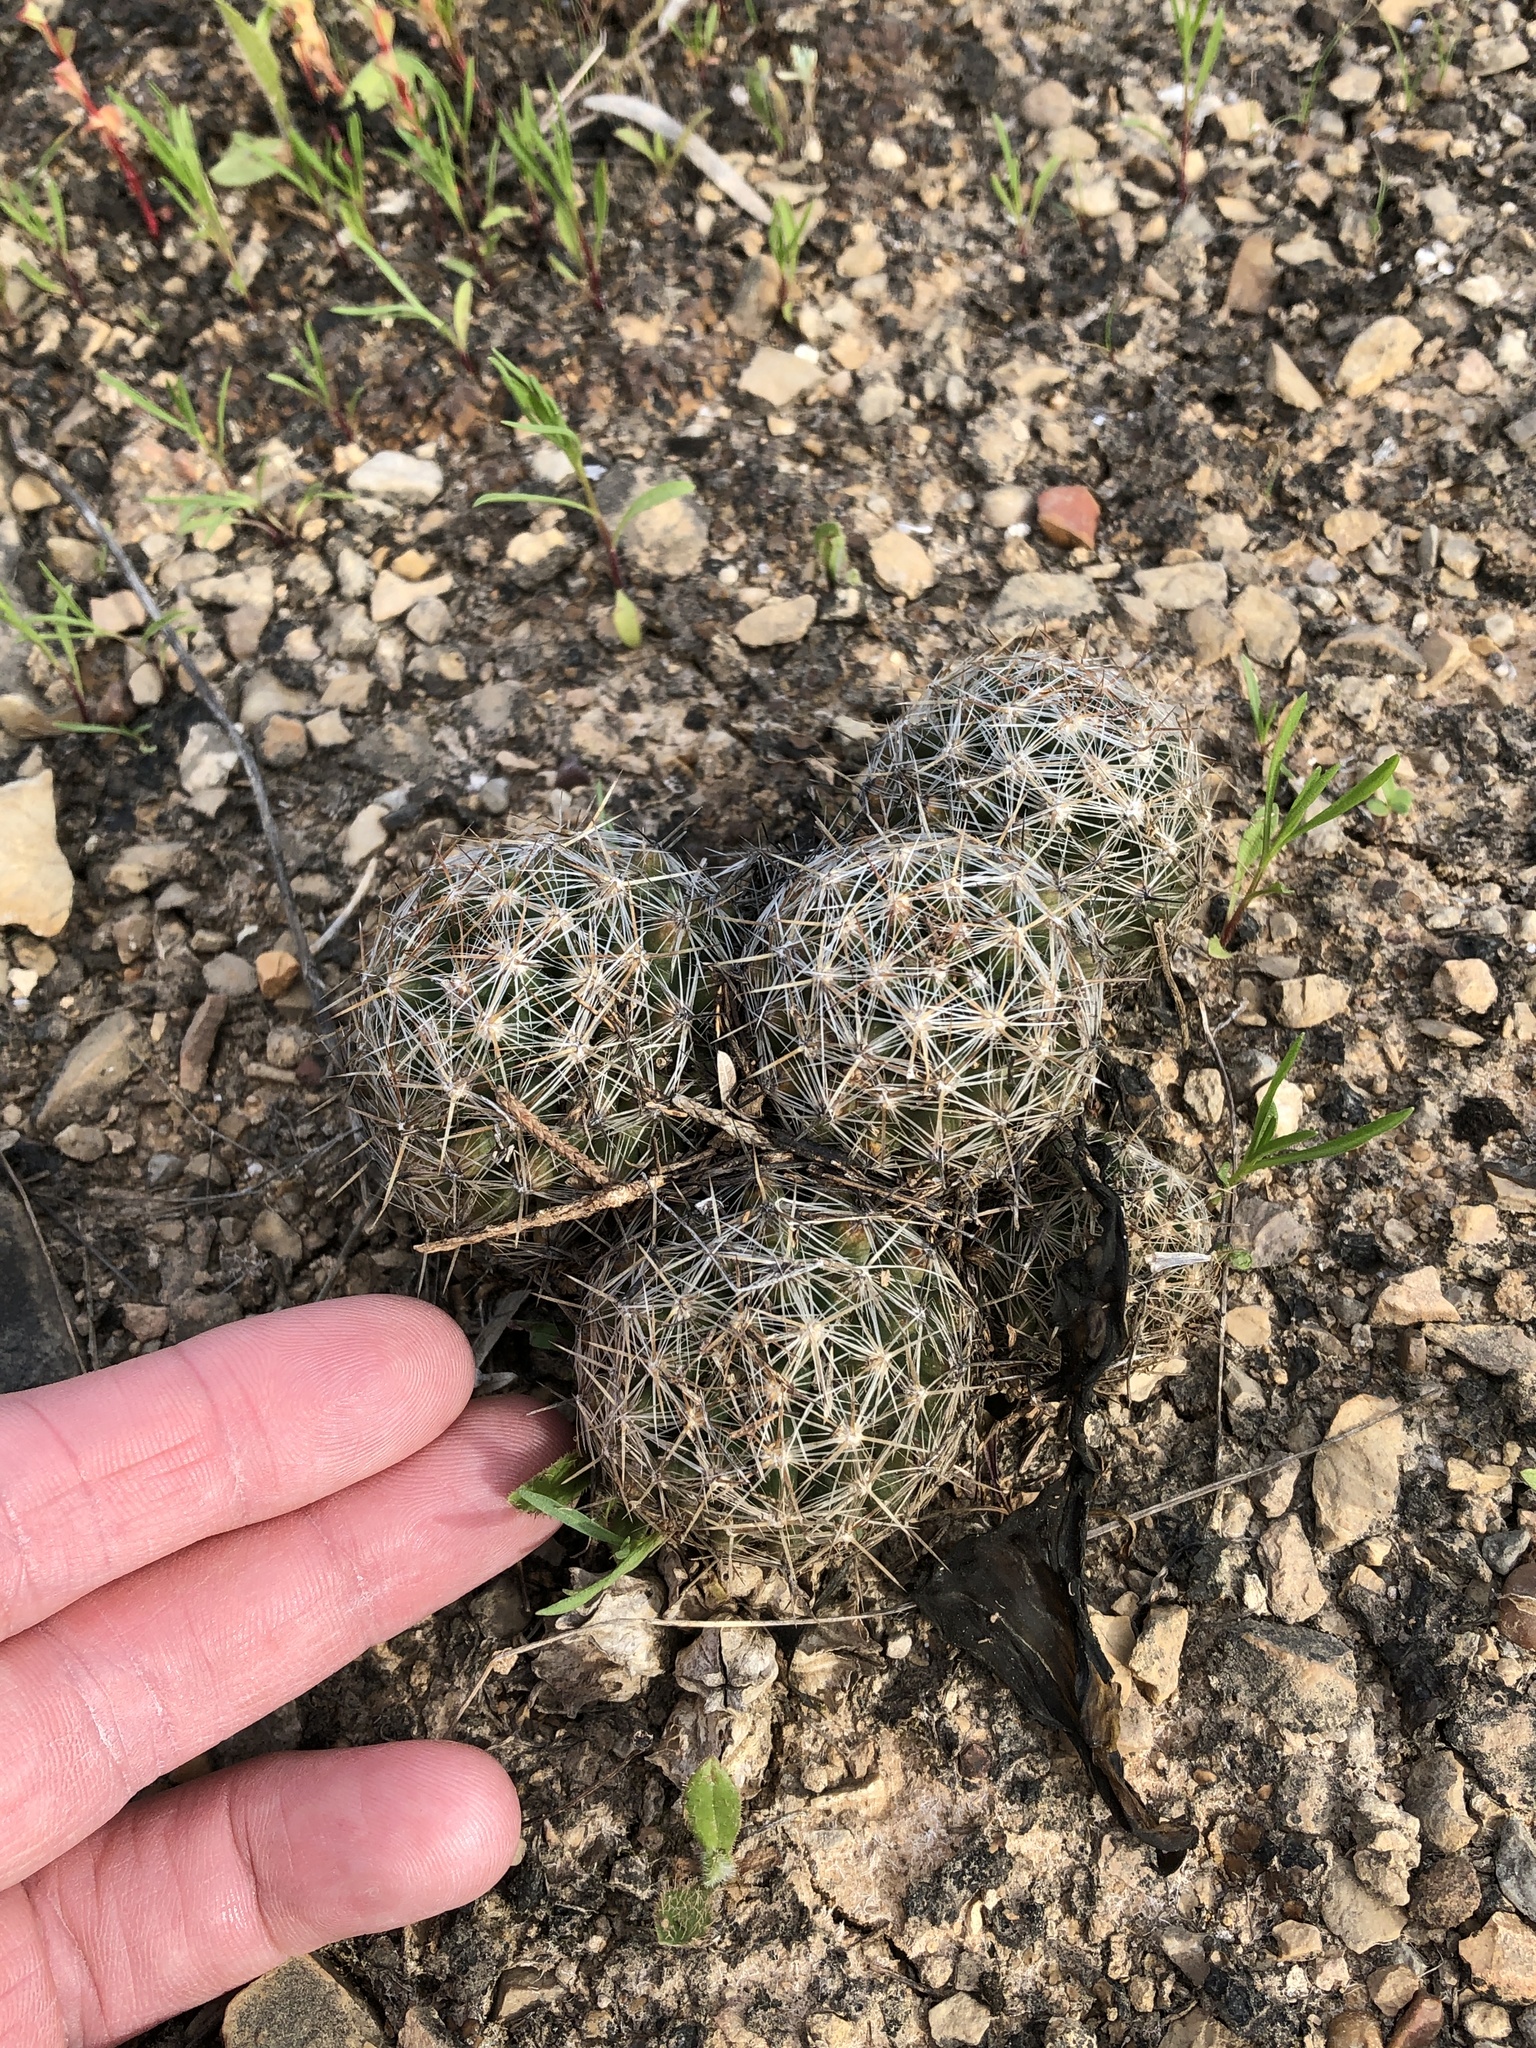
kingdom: Plantae
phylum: Tracheophyta
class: Magnoliopsida
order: Caryophyllales
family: Cactaceae
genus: Pelecyphora
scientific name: Pelecyphora vivipara
